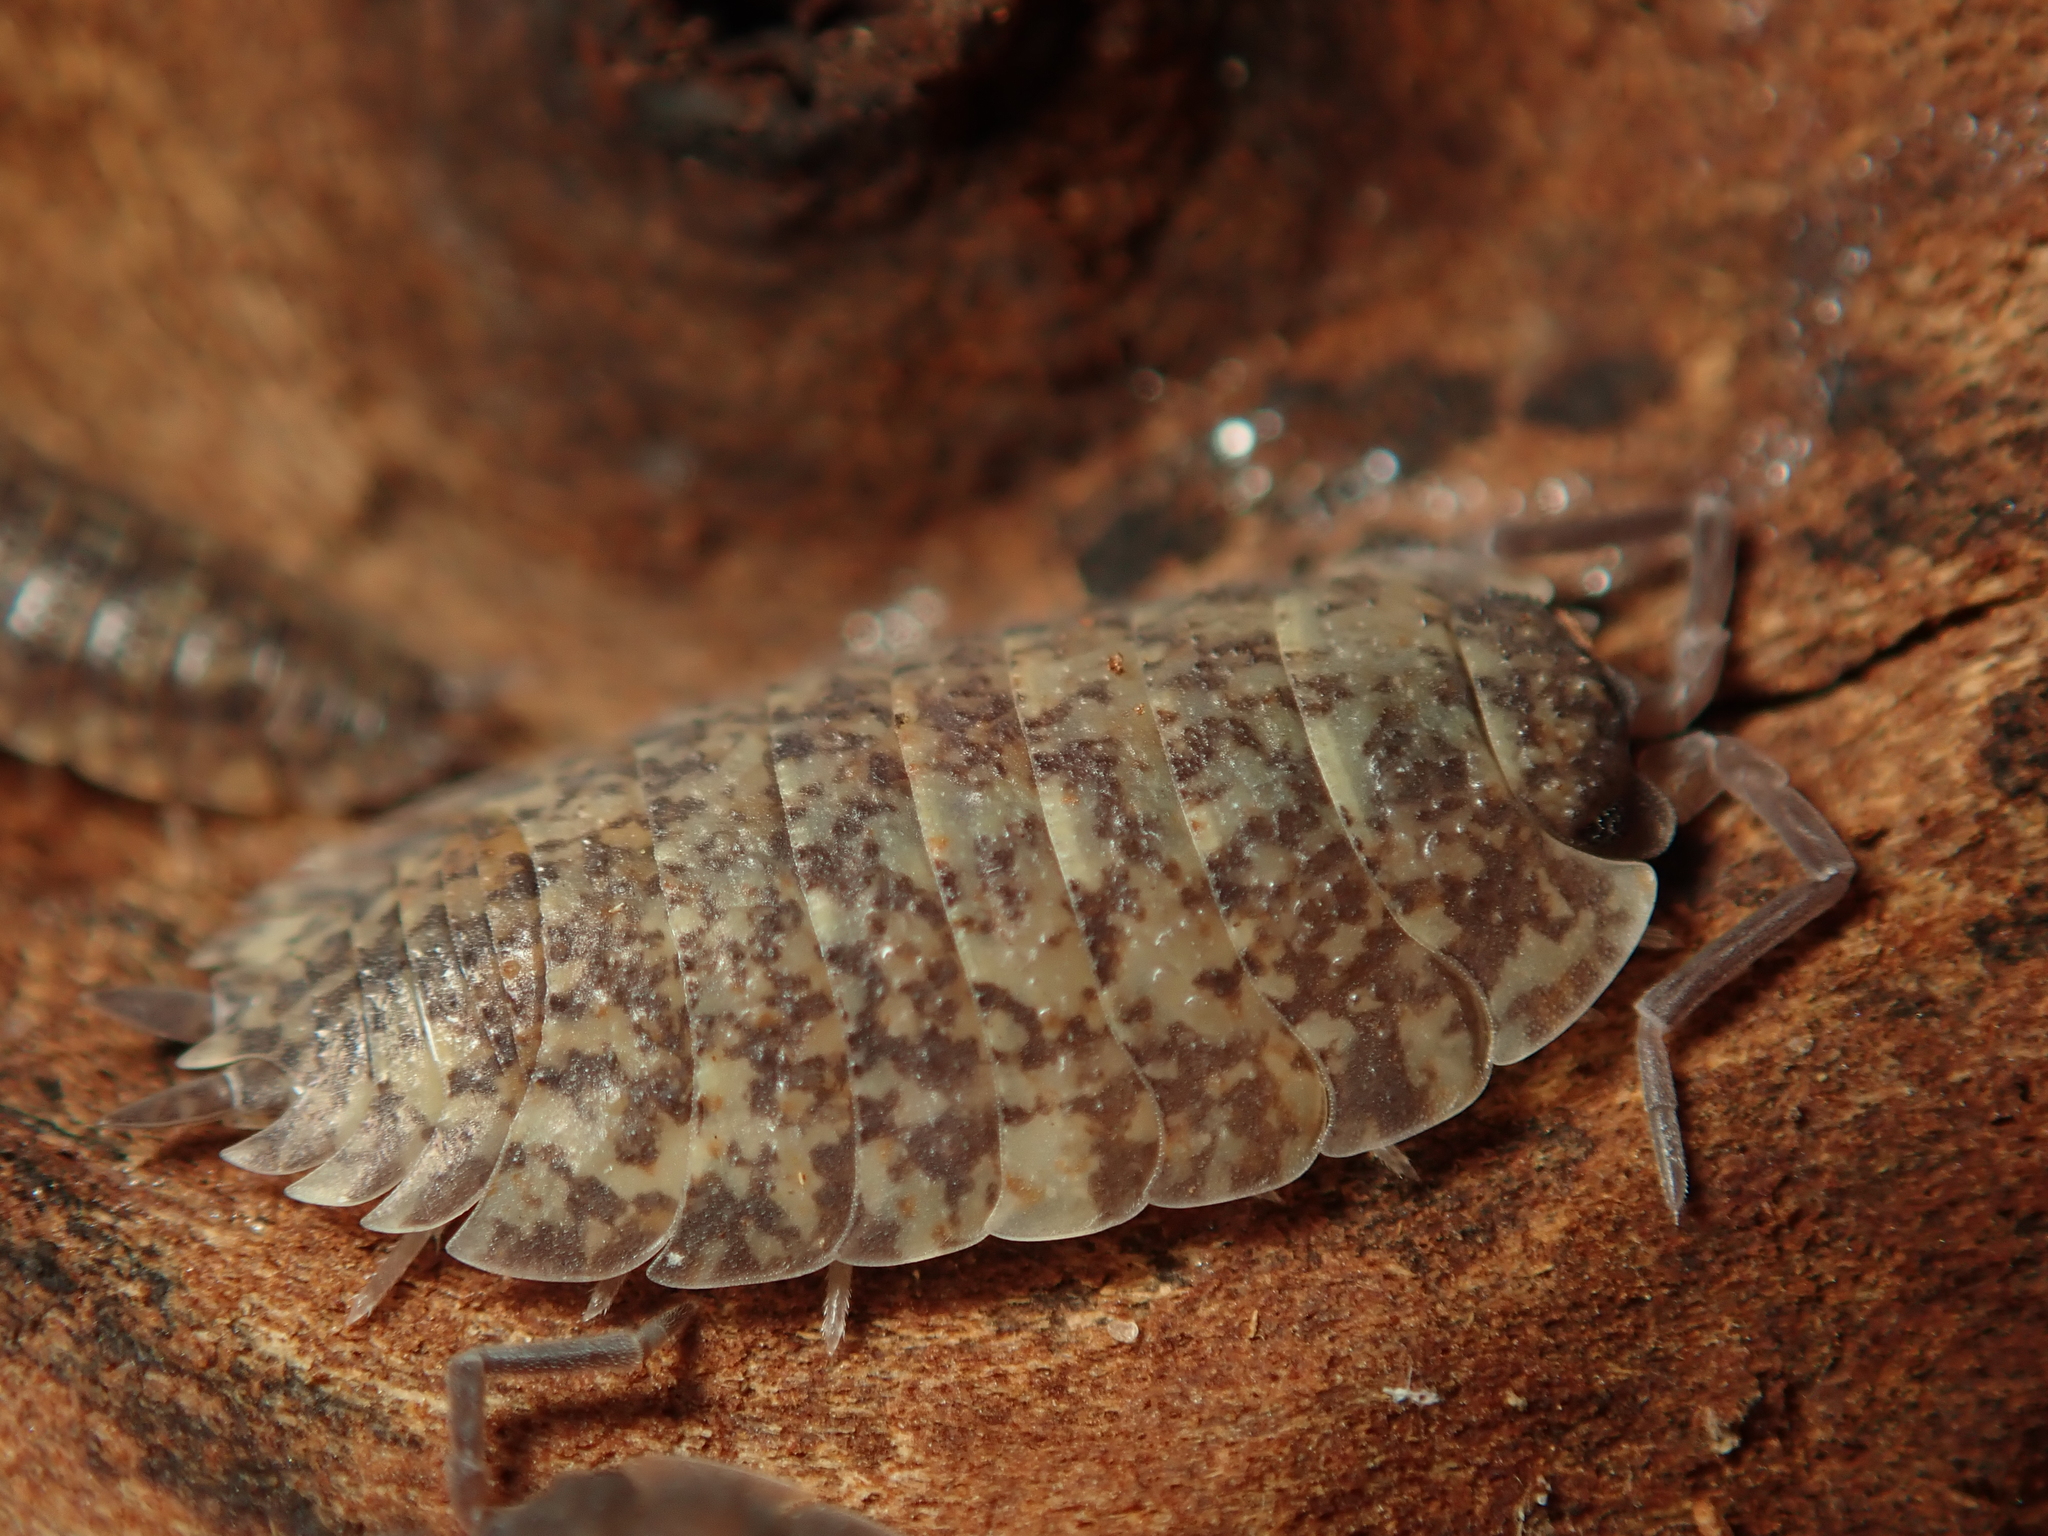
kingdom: Animalia
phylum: Arthropoda
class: Malacostraca
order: Isopoda
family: Porcellionidae
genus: Porcellio
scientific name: Porcellio scaber
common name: Common rough woodlouse
